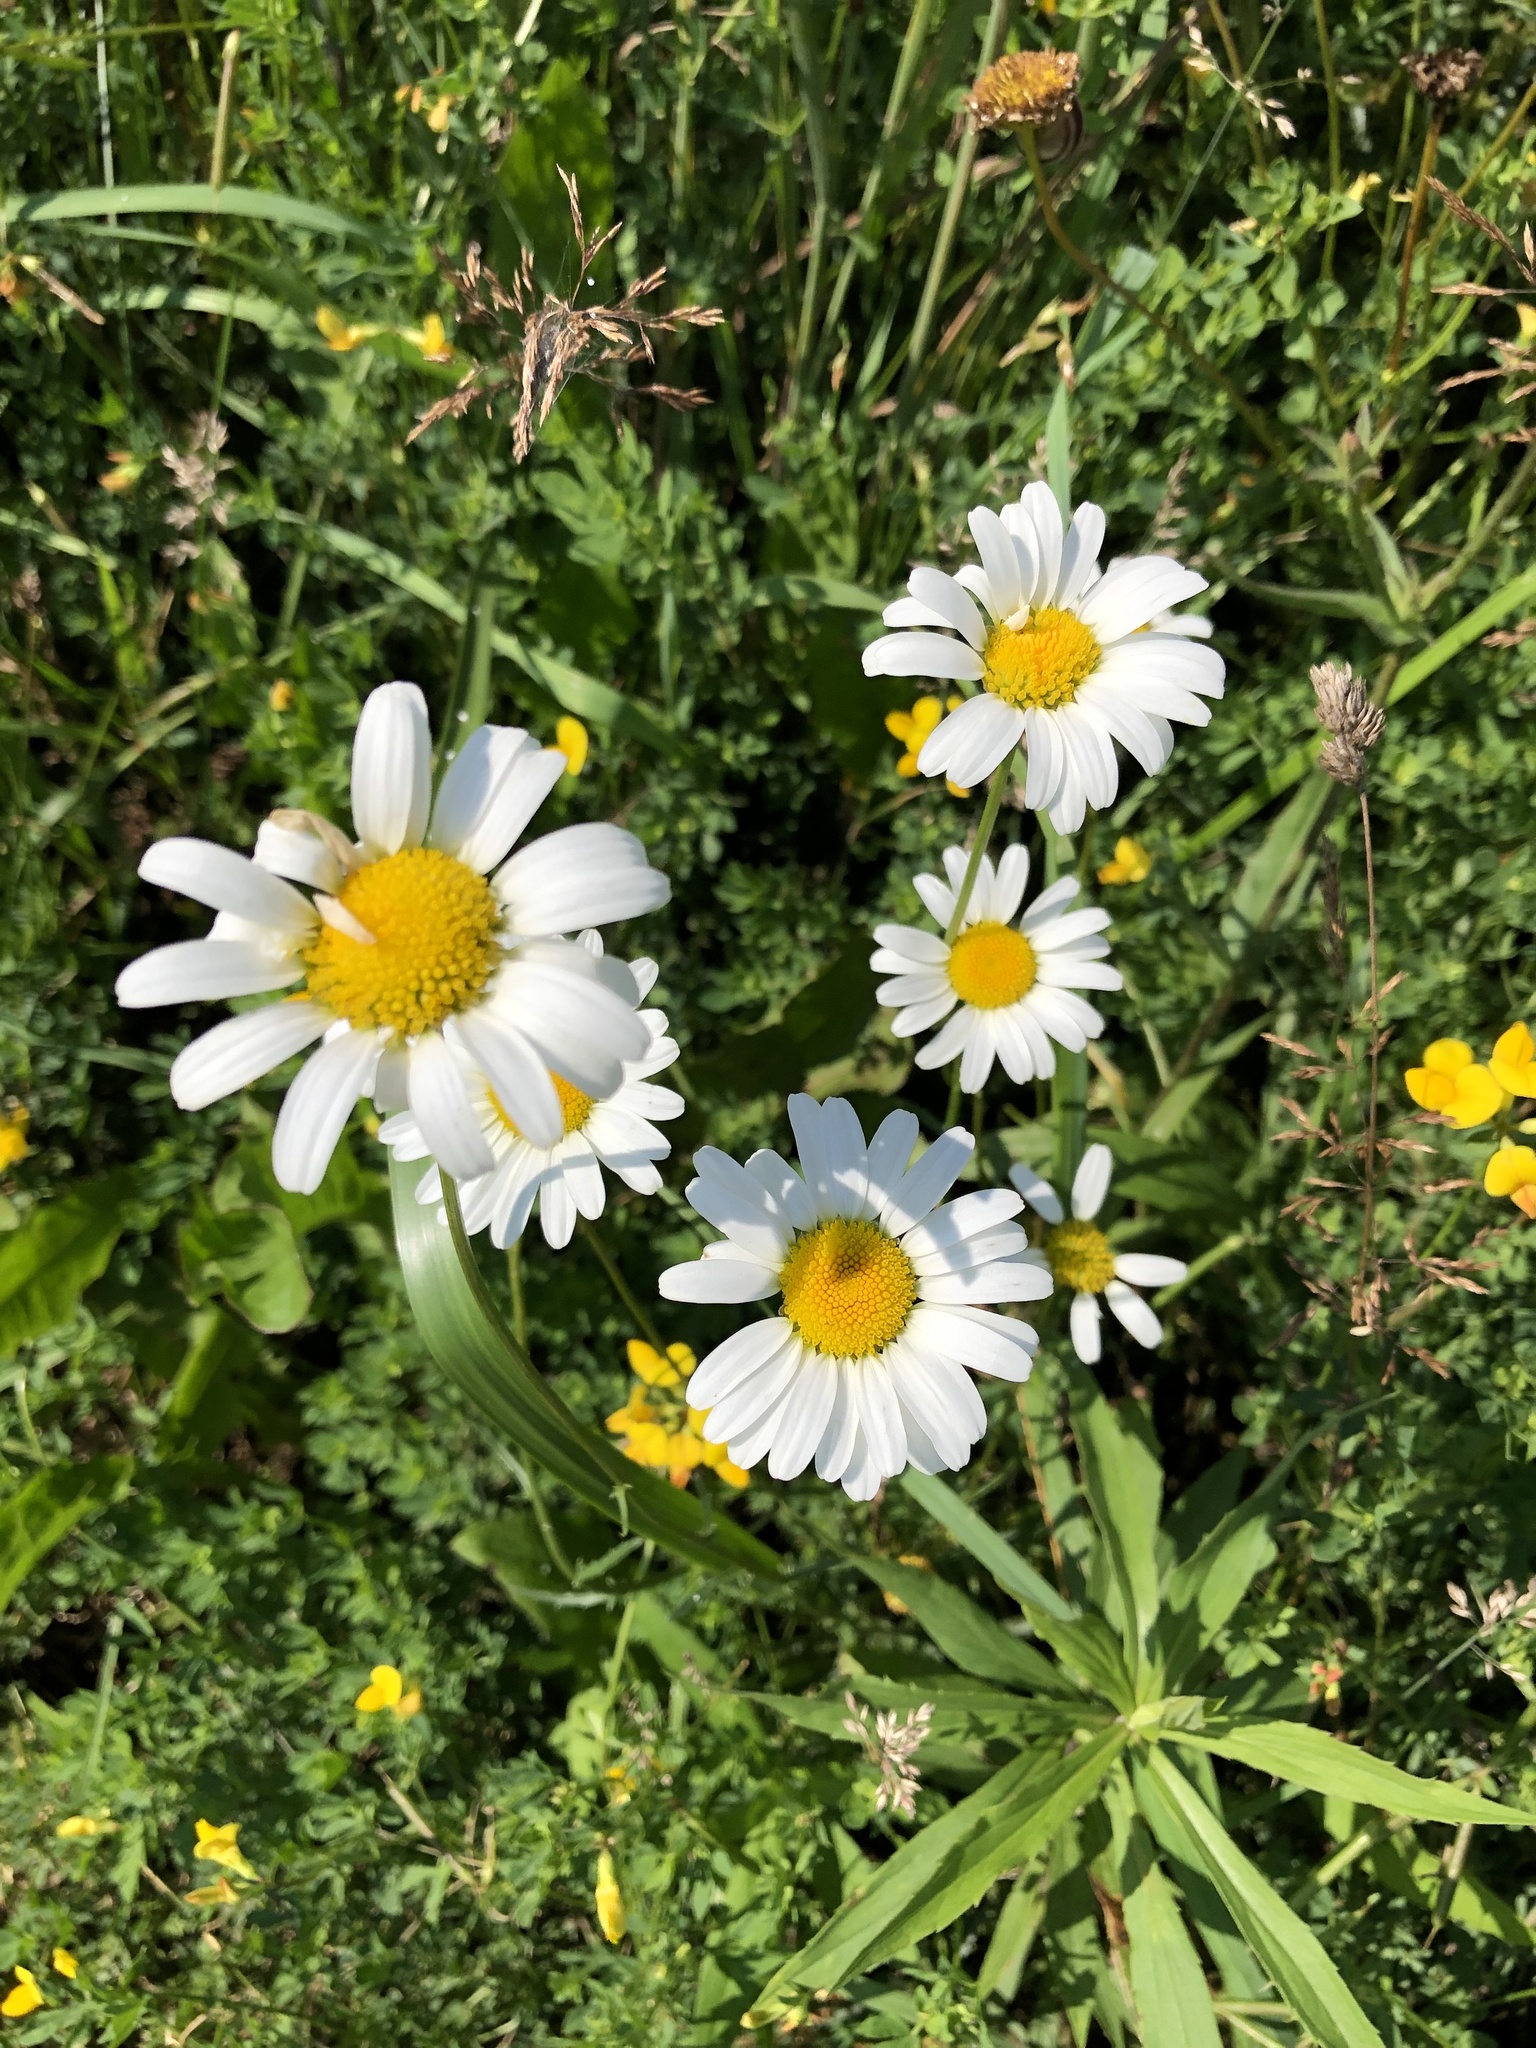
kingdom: Plantae
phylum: Tracheophyta
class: Magnoliopsida
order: Asterales
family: Asteraceae
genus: Leucanthemum
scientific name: Leucanthemum vulgare
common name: Oxeye daisy
